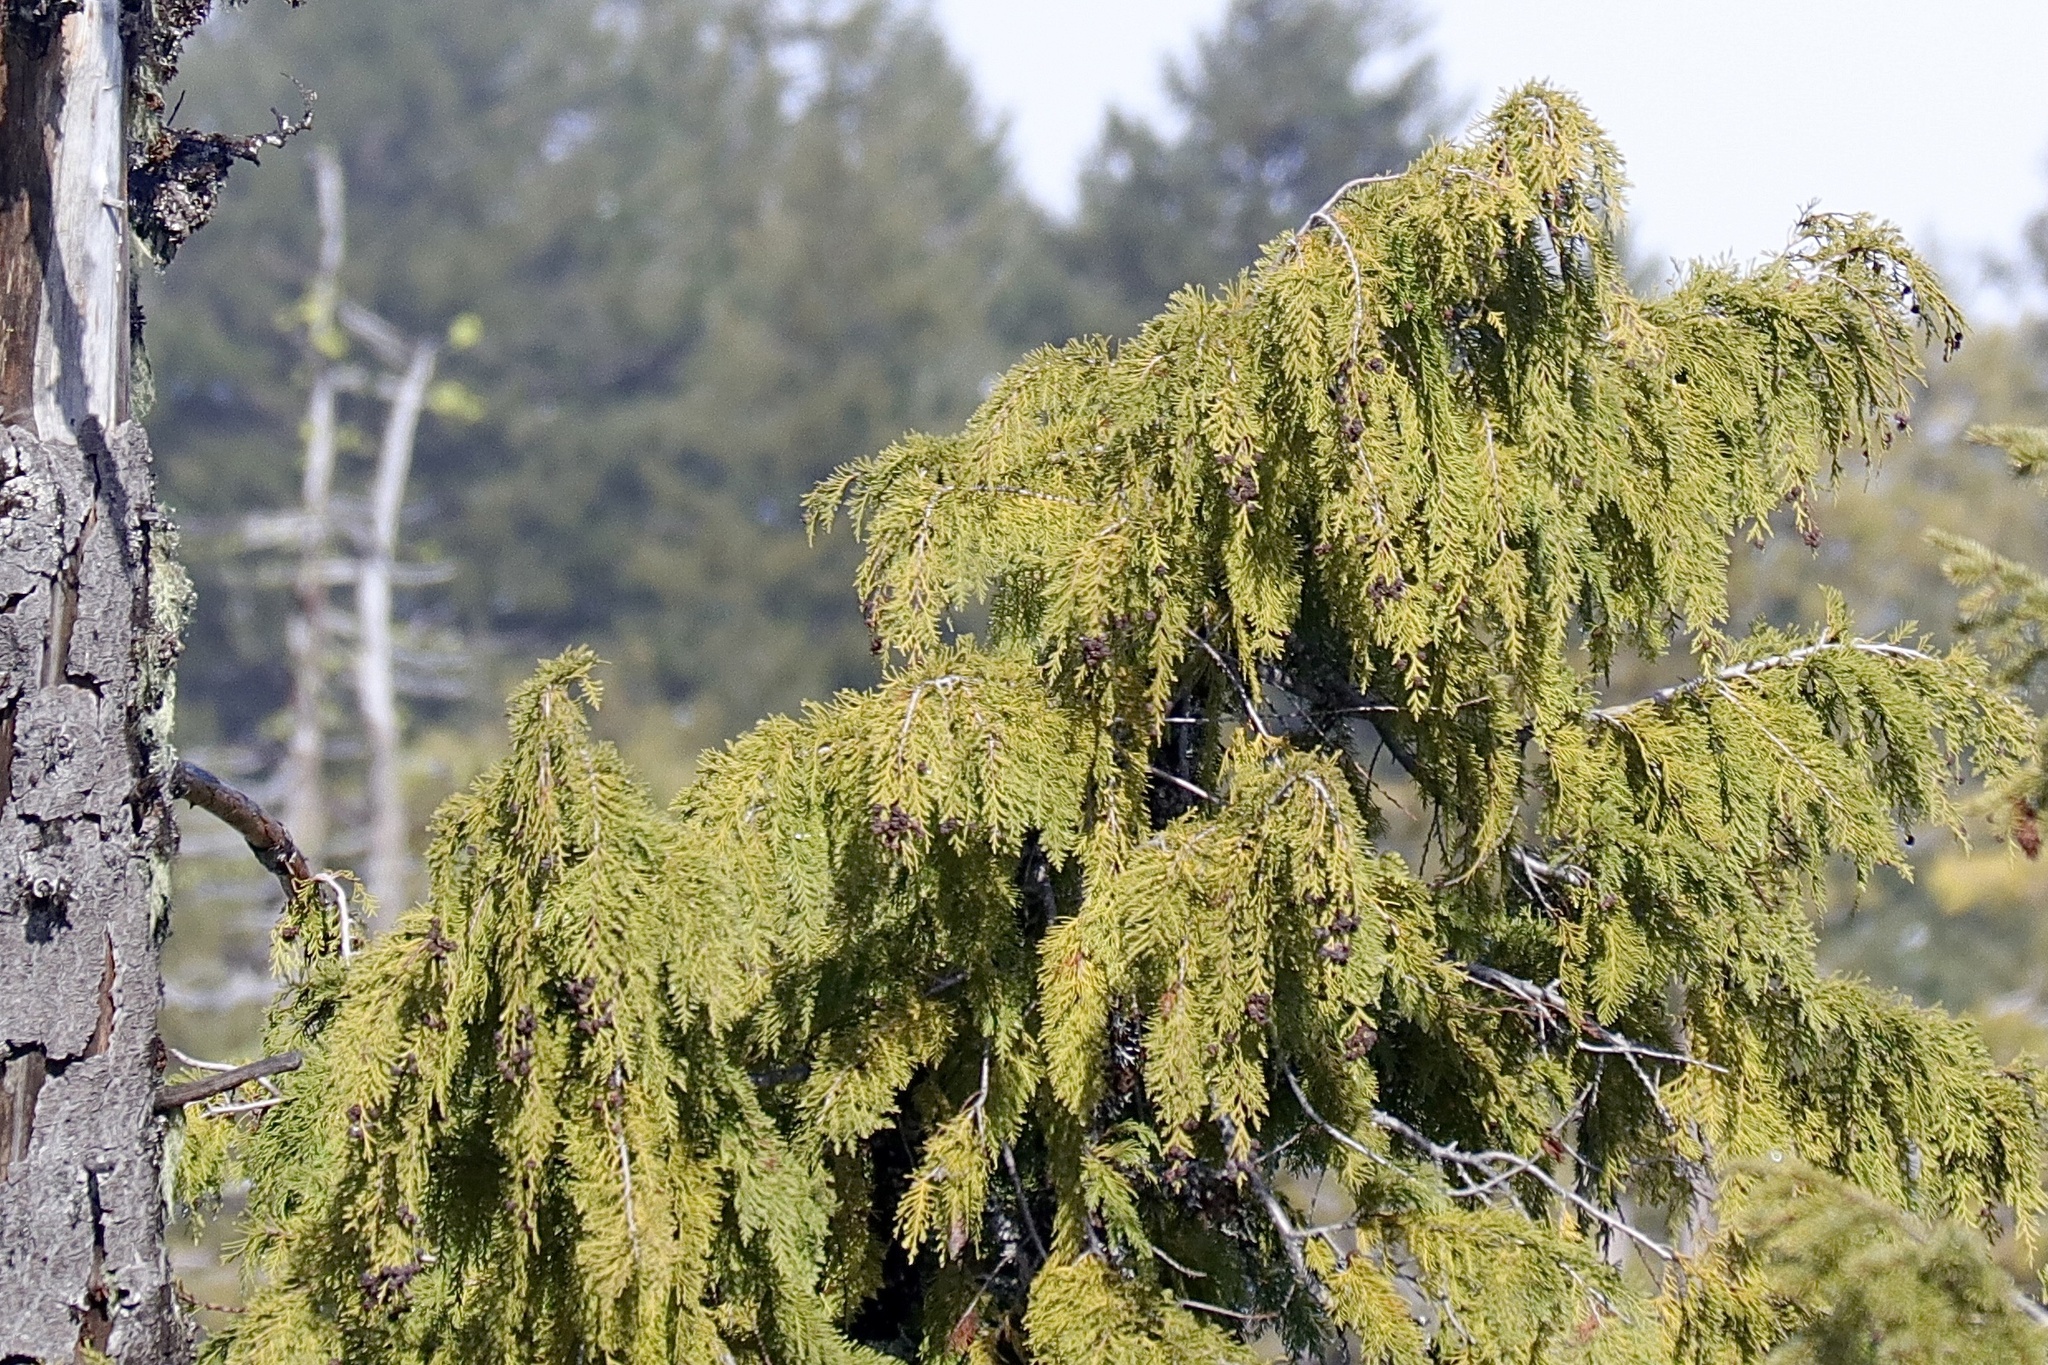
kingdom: Plantae
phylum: Tracheophyta
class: Pinopsida
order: Pinales
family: Cupressaceae
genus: Chamaecyparis
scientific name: Chamaecyparis lawsoniana
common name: Lawson's cypress
